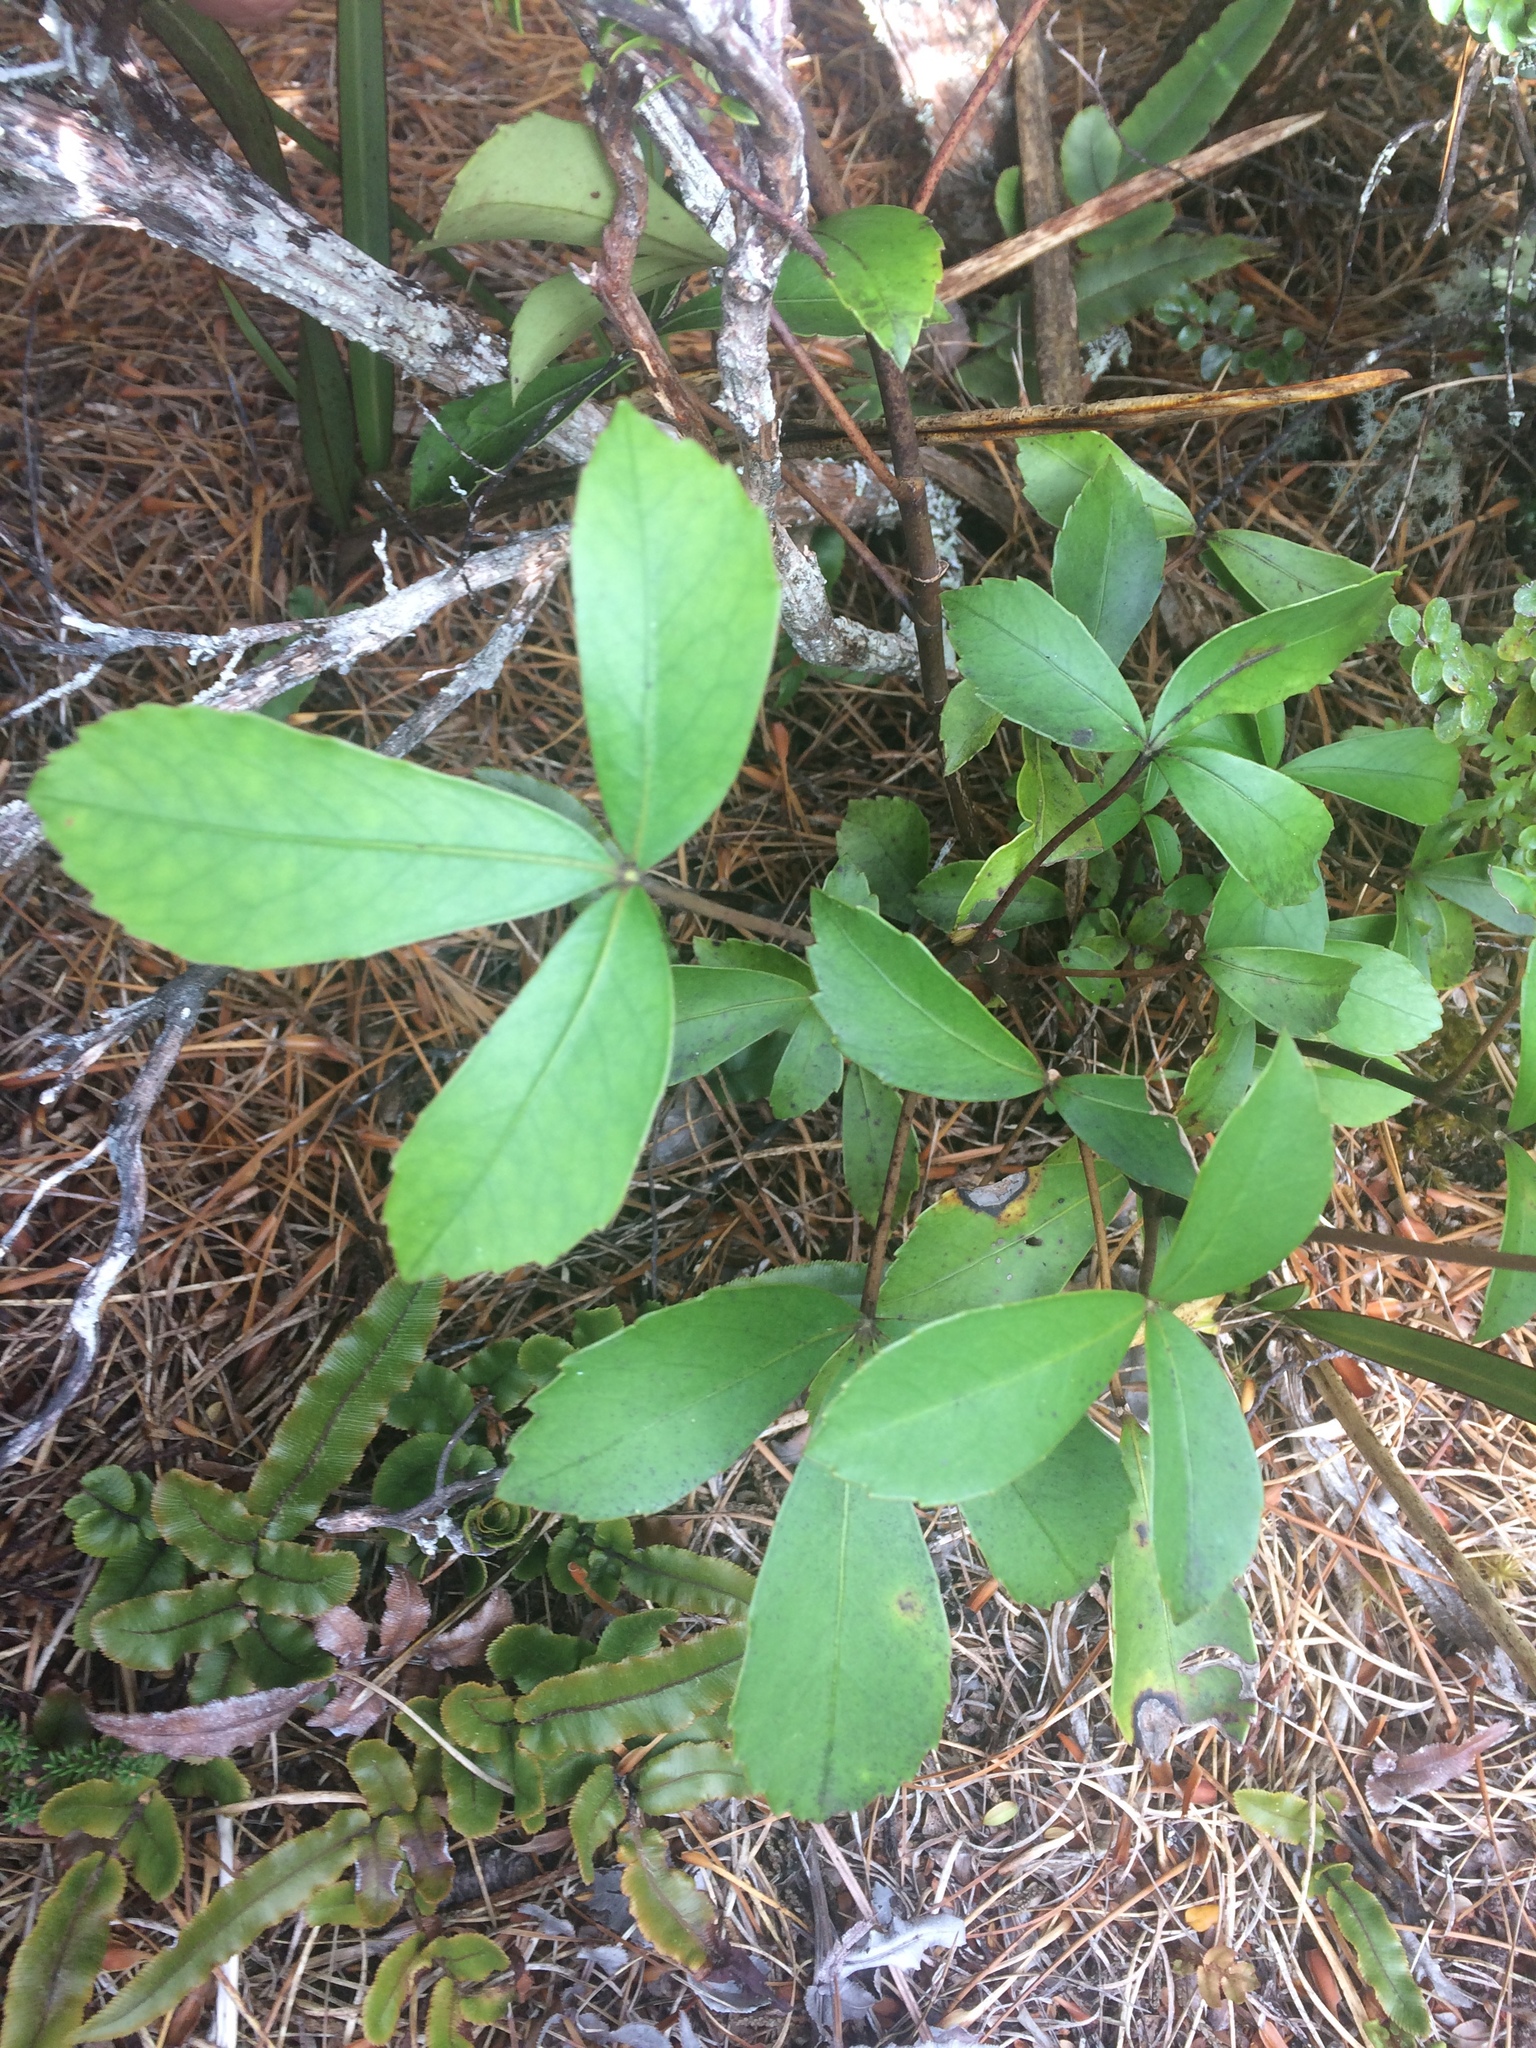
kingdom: Plantae
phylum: Tracheophyta
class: Magnoliopsida
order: Apiales
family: Araliaceae
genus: Neopanax
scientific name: Neopanax colensoi
